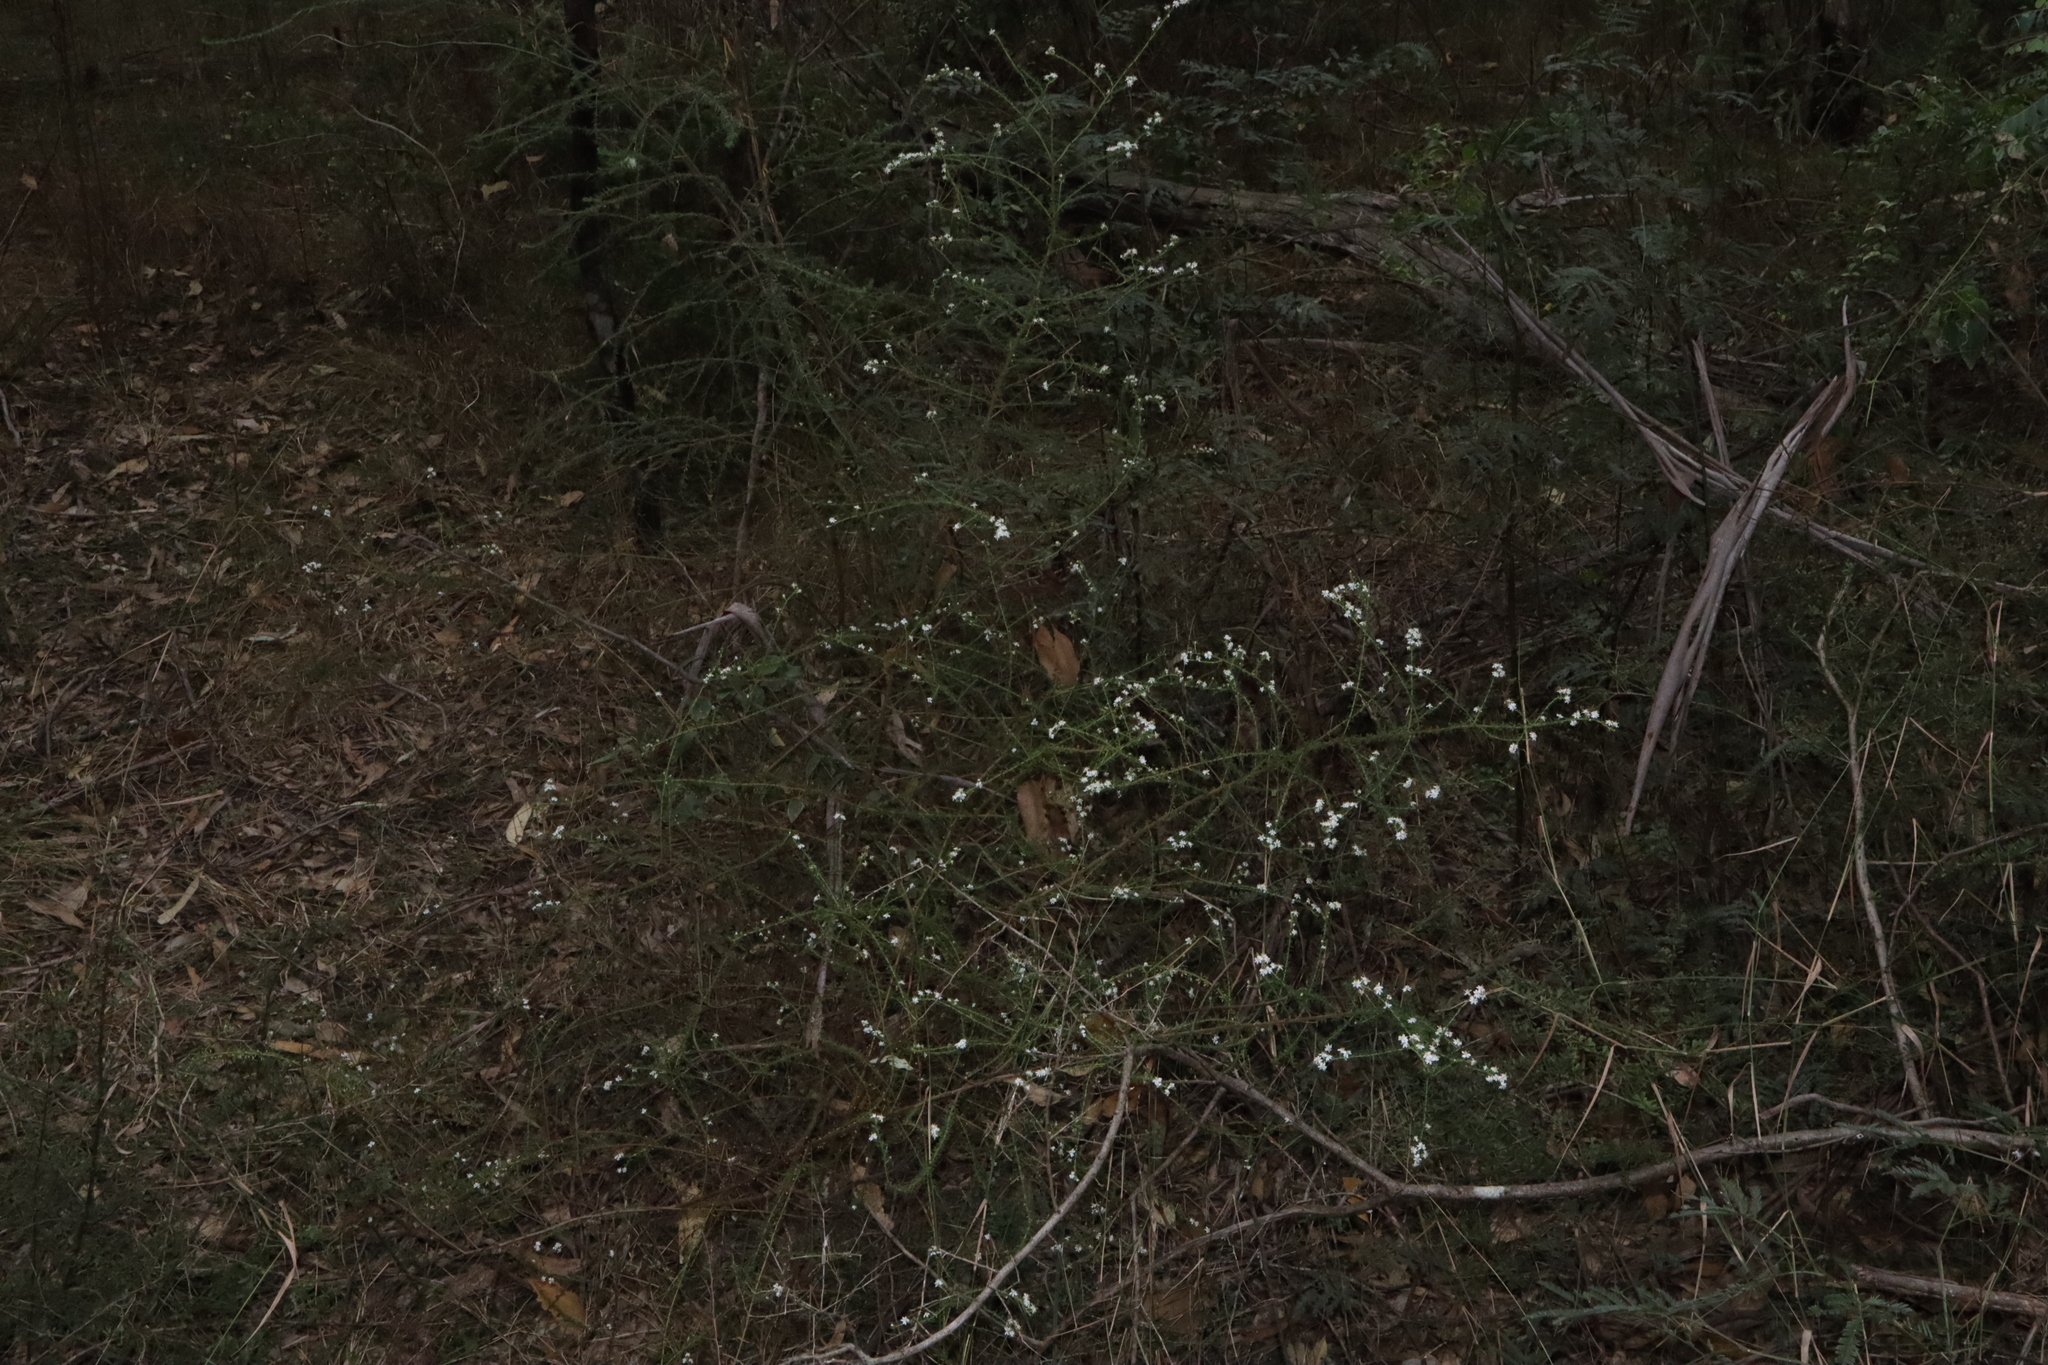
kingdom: Plantae
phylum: Tracheophyta
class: Magnoliopsida
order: Asterales
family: Asteraceae
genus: Olearia
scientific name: Olearia microphylla
